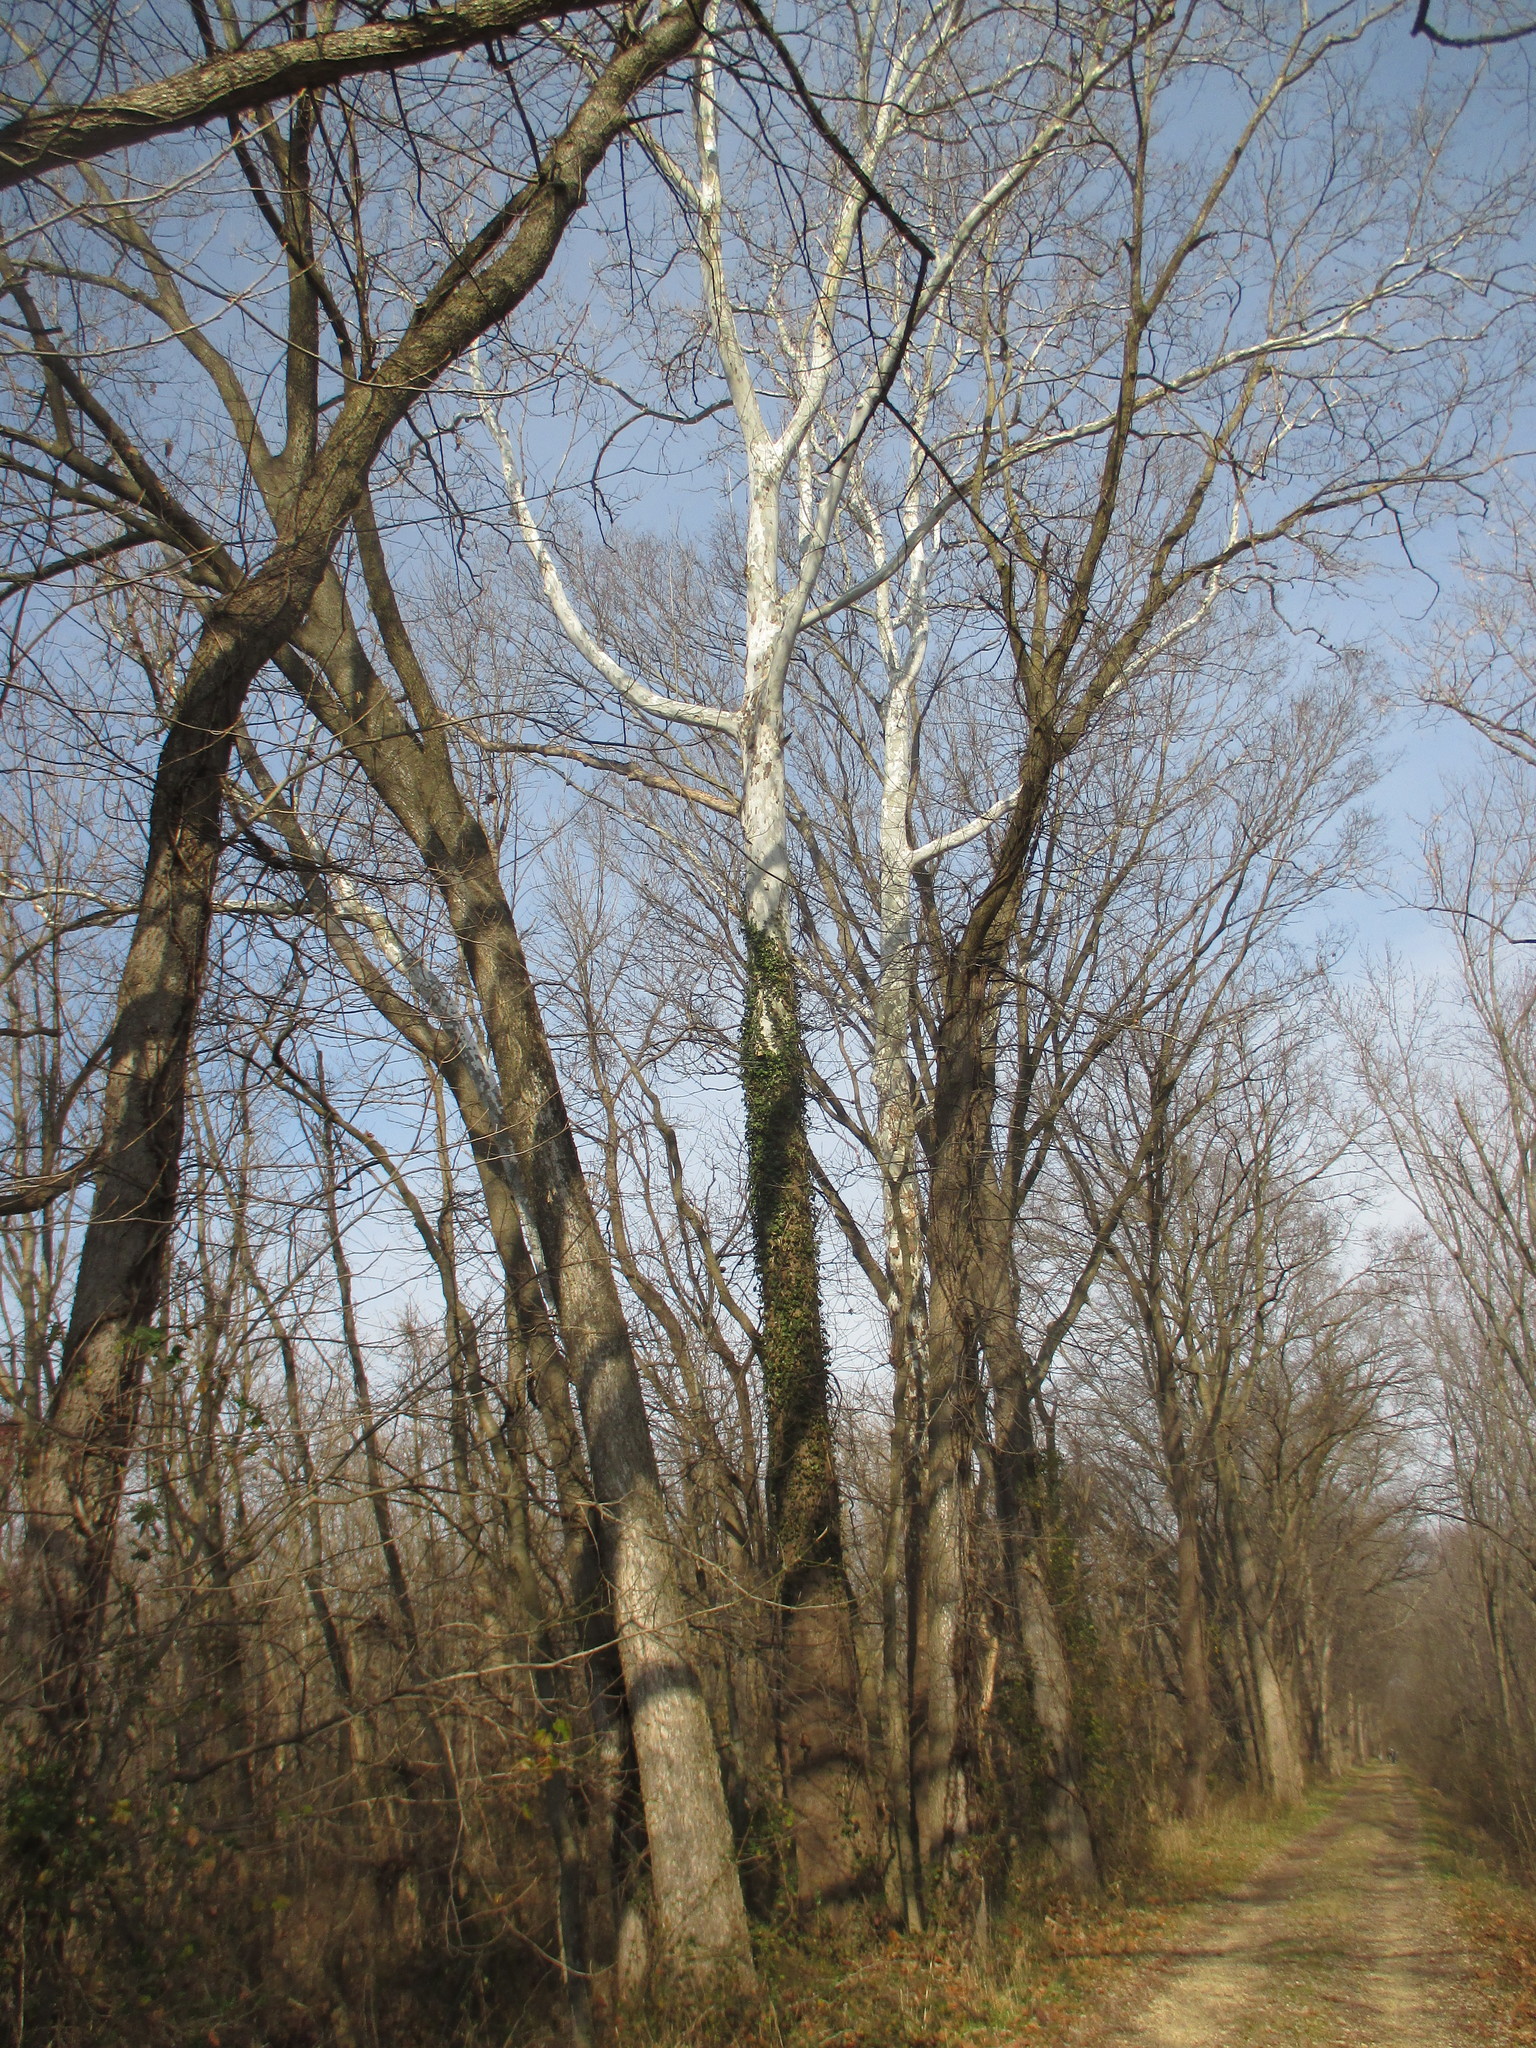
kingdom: Plantae
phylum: Tracheophyta
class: Magnoliopsida
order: Proteales
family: Platanaceae
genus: Platanus
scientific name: Platanus occidentalis
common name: American sycamore
